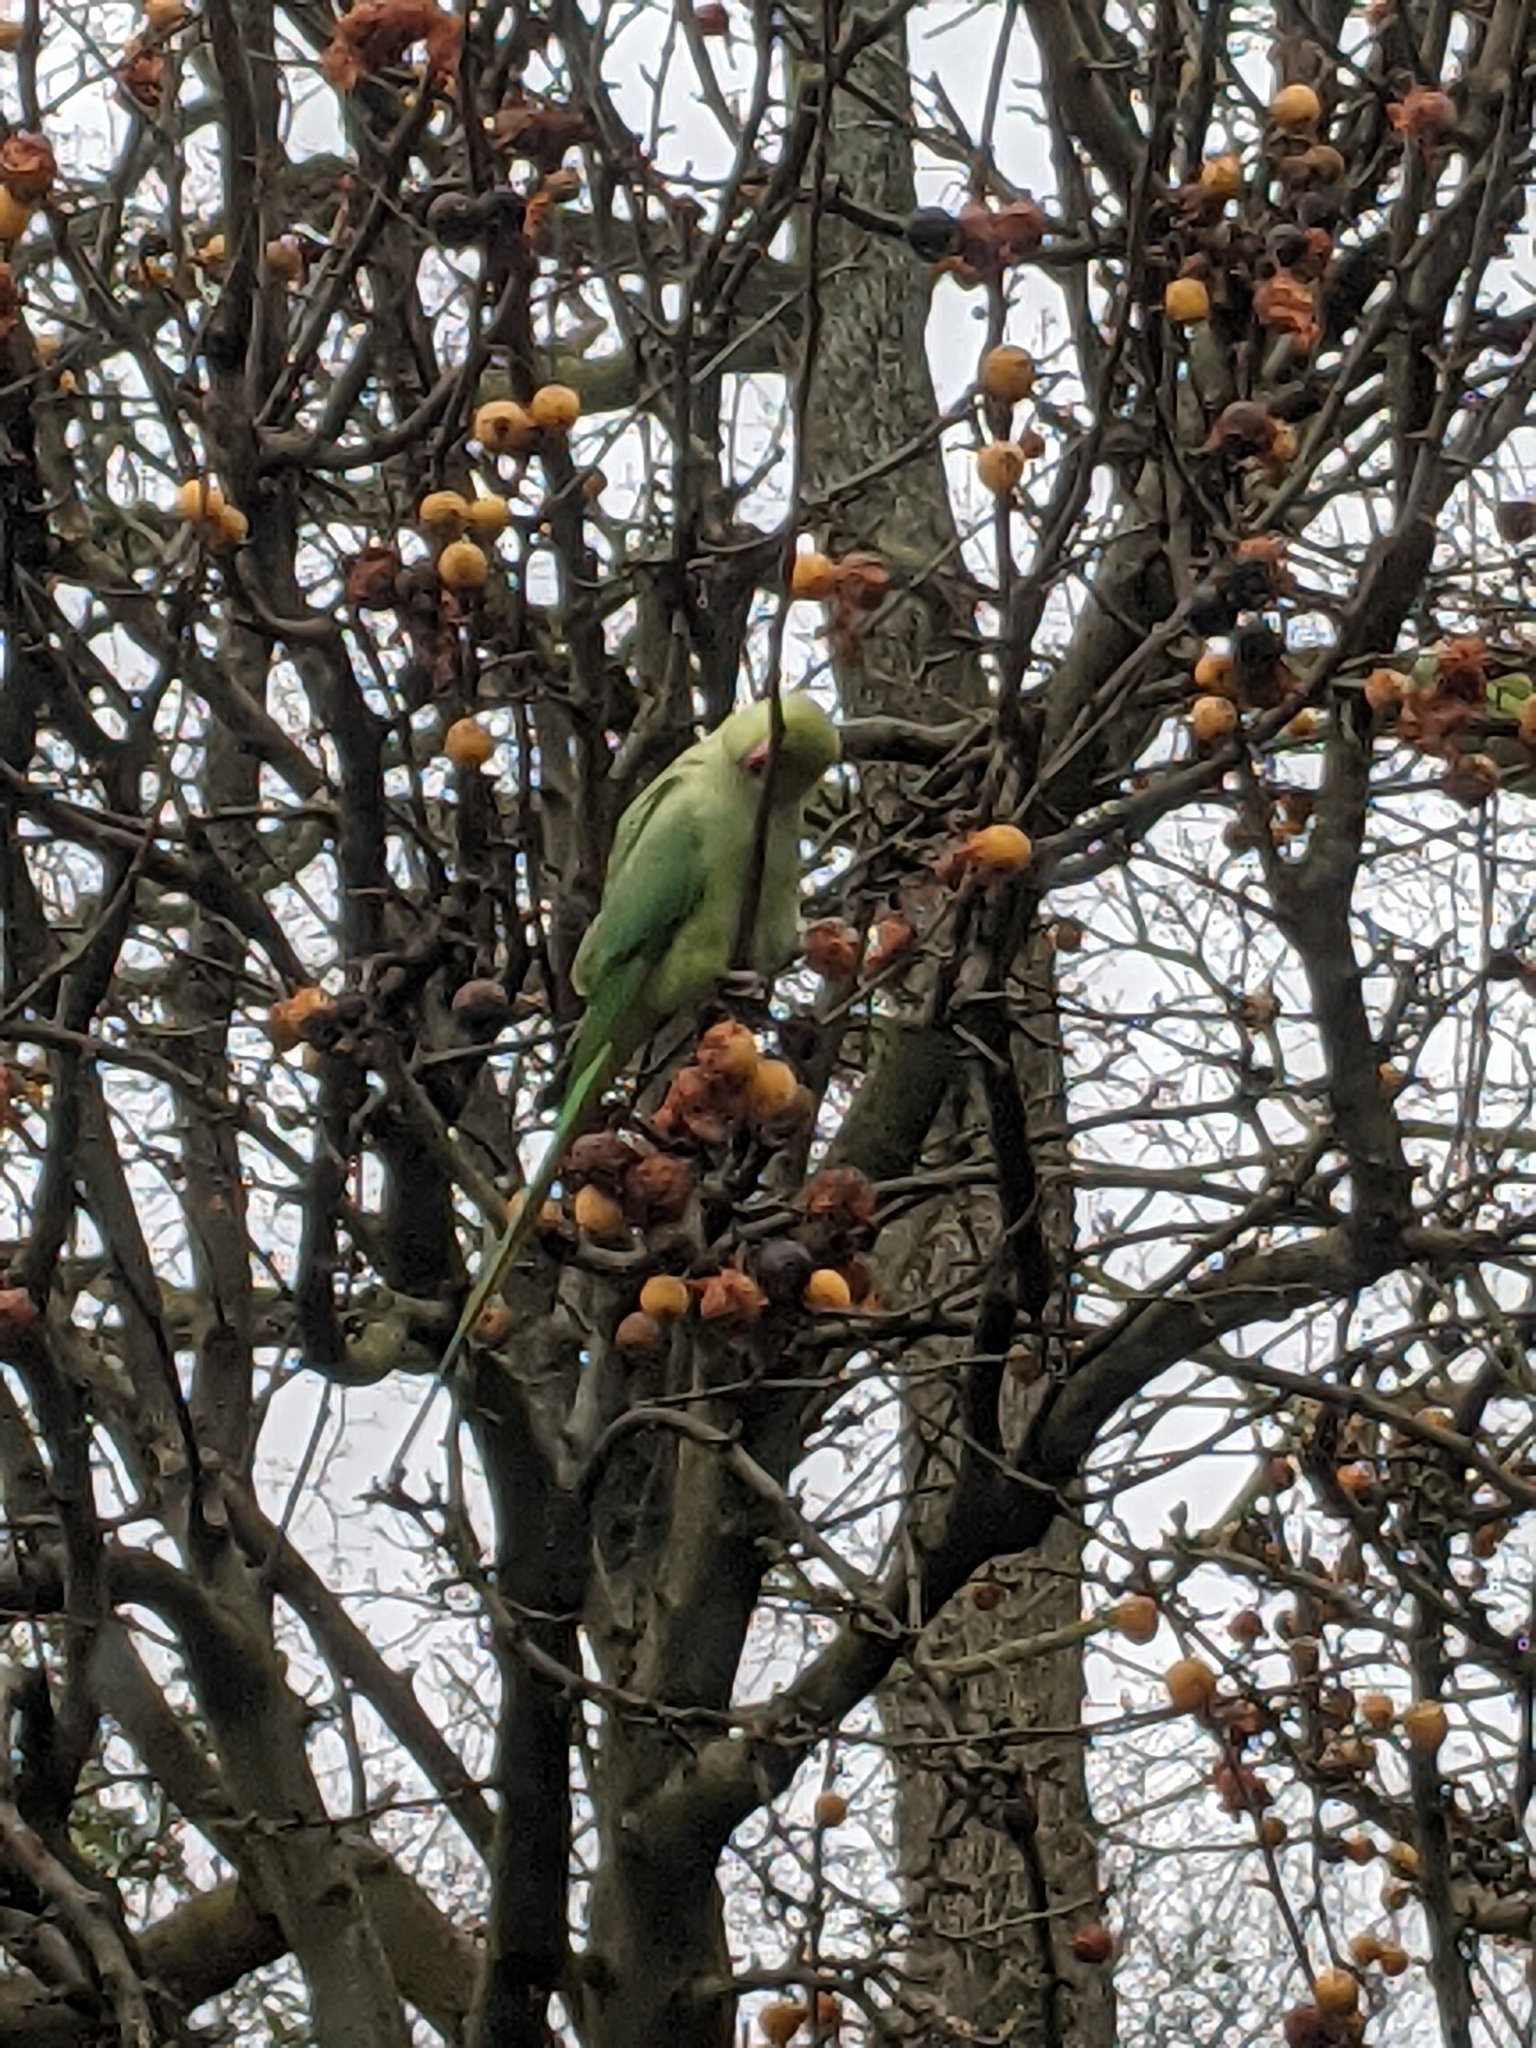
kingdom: Animalia
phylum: Chordata
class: Aves
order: Psittaciformes
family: Psittacidae
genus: Psittacula
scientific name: Psittacula krameri
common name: Rose-ringed parakeet
